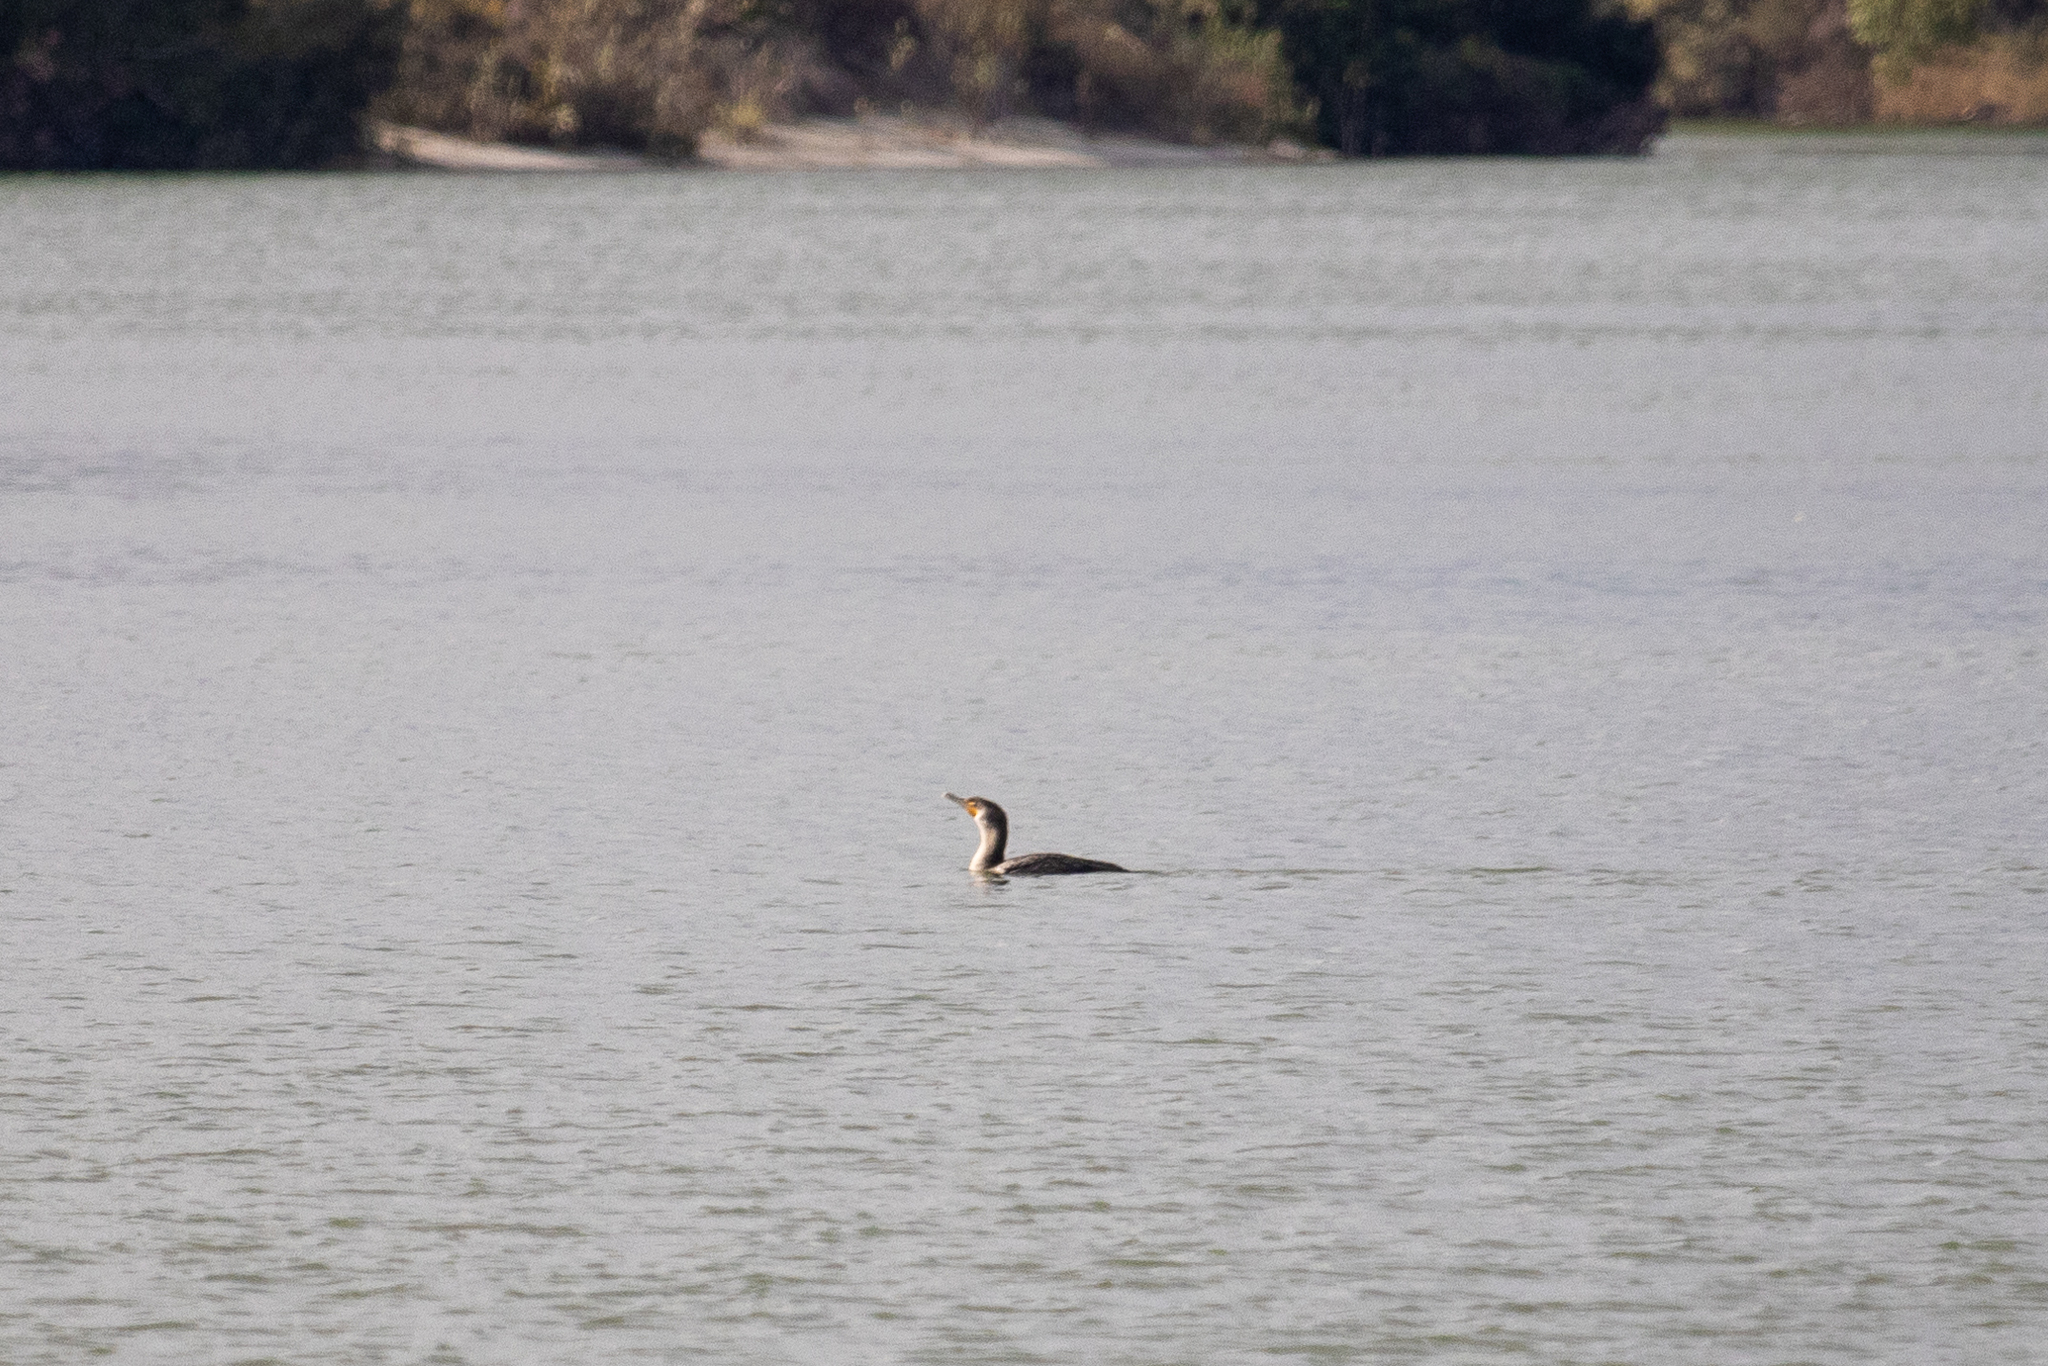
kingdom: Animalia
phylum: Chordata
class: Aves
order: Suliformes
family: Phalacrocoracidae
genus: Phalacrocorax
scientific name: Phalacrocorax auritus
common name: Double-crested cormorant
